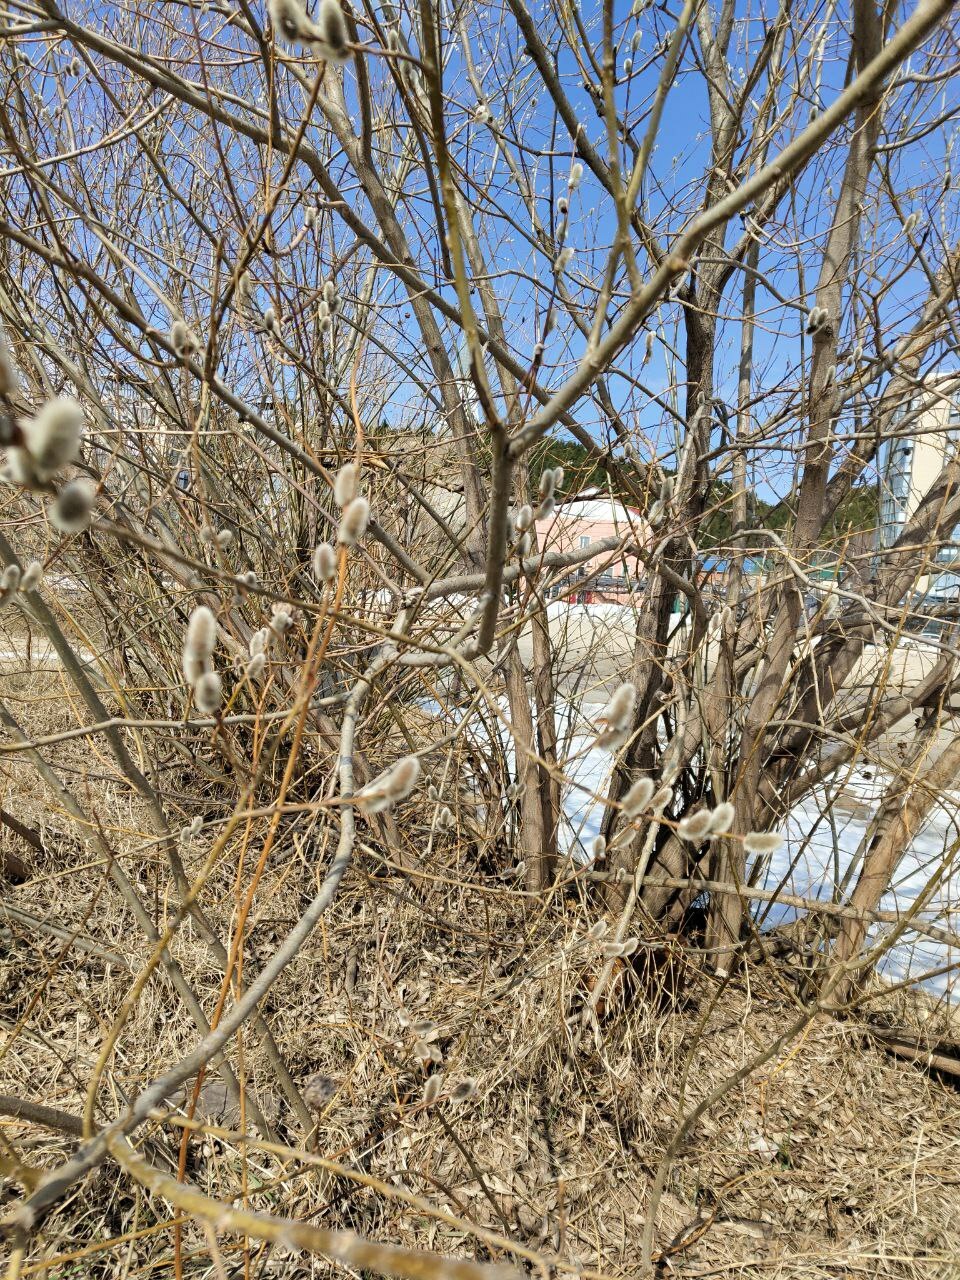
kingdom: Plantae
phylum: Tracheophyta
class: Magnoliopsida
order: Malpighiales
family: Salicaceae
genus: Salix
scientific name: Salix caprea
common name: Goat willow
